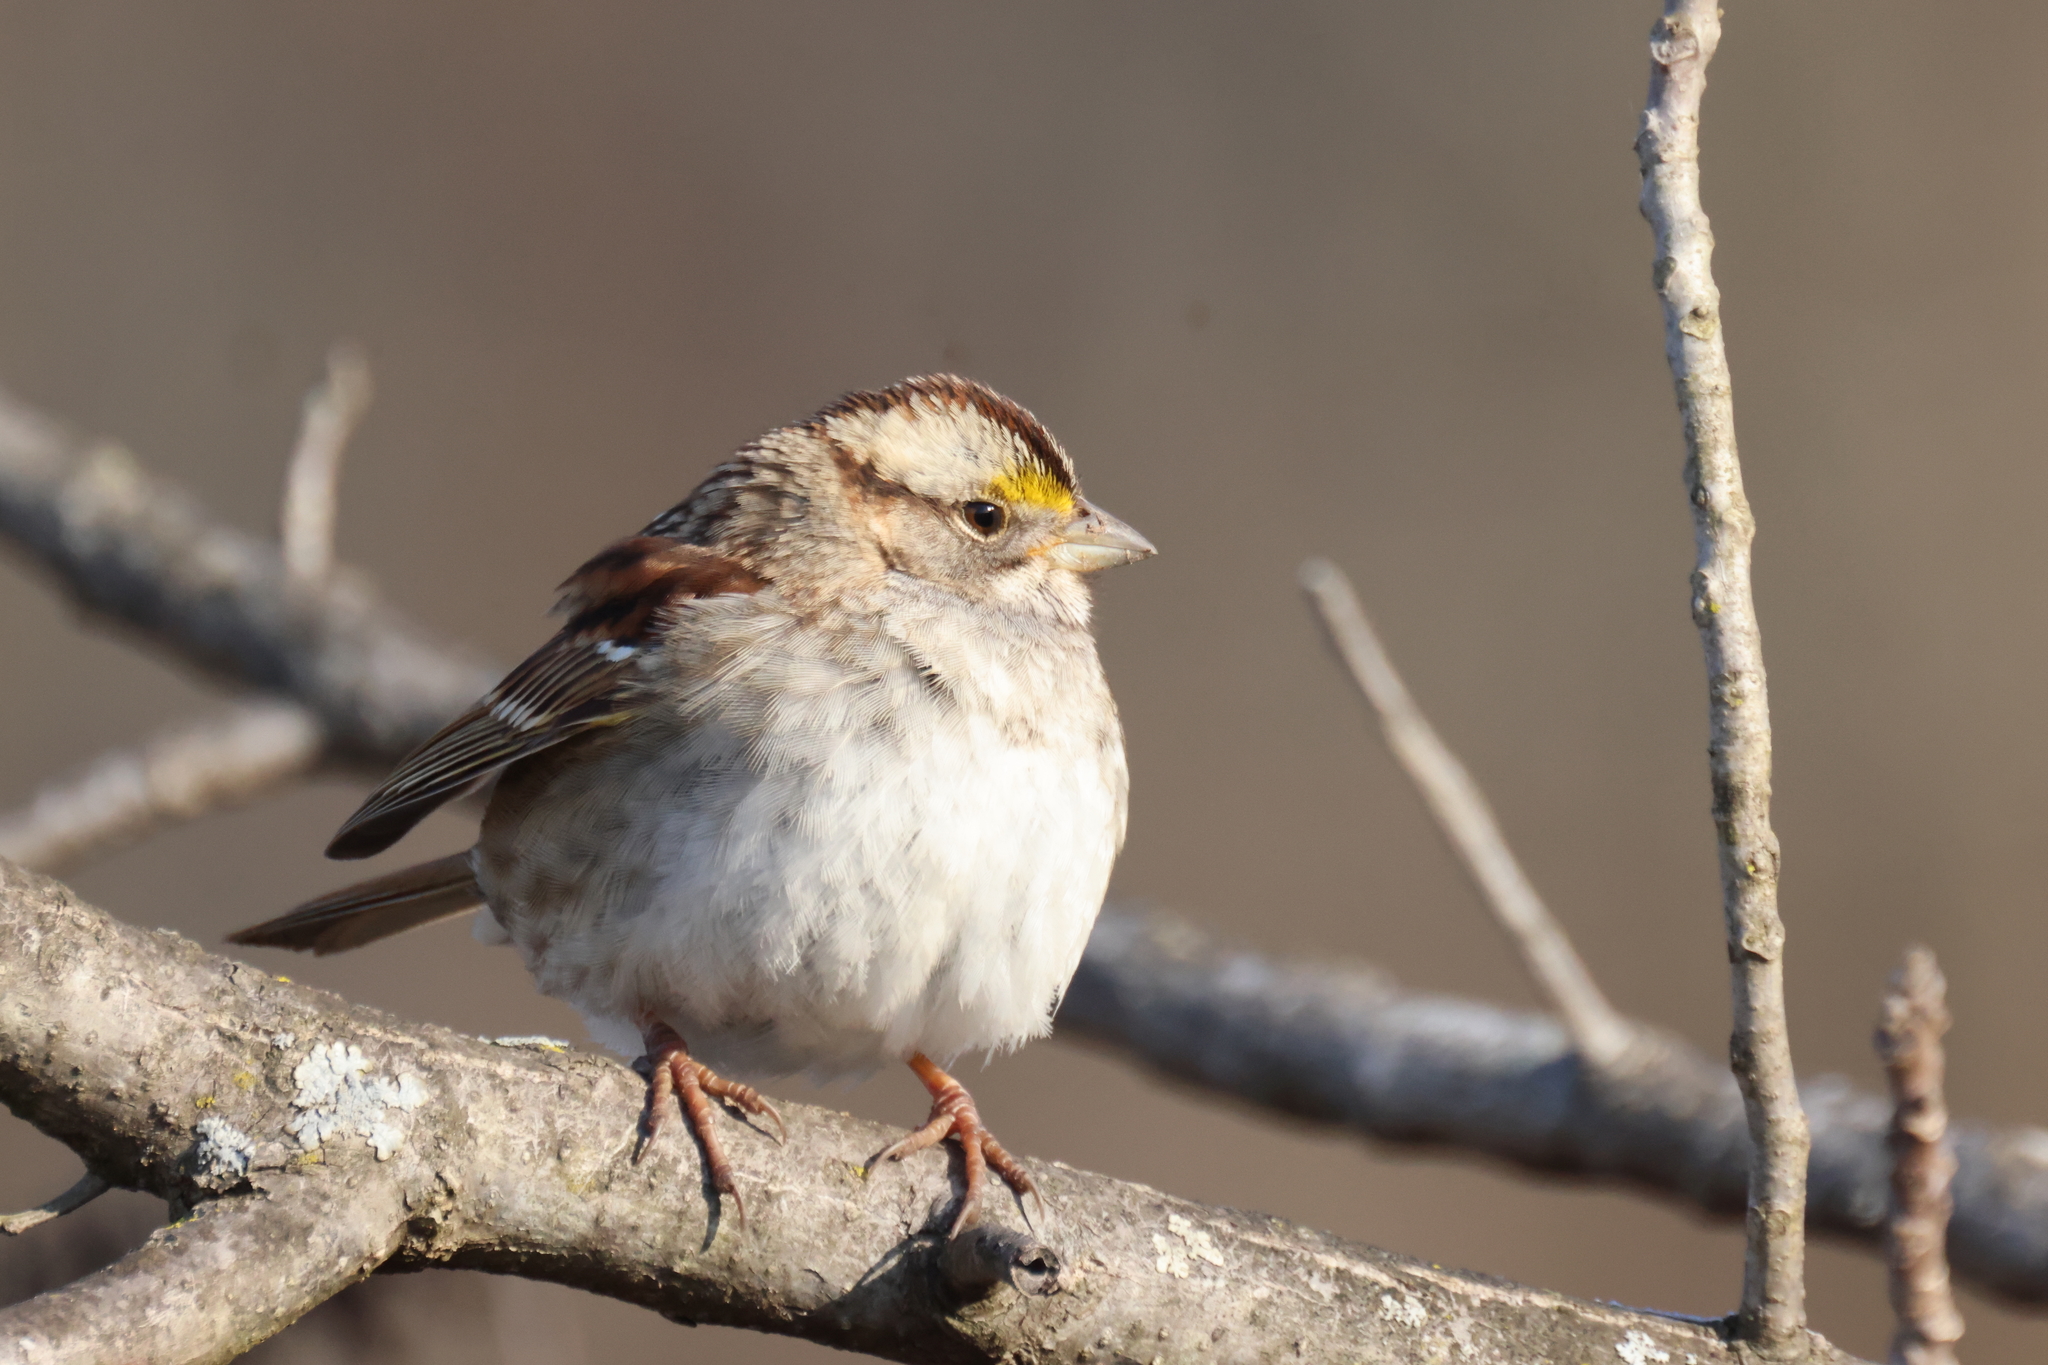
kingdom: Animalia
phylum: Chordata
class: Aves
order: Passeriformes
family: Passerellidae
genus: Zonotrichia
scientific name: Zonotrichia albicollis
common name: White-throated sparrow
